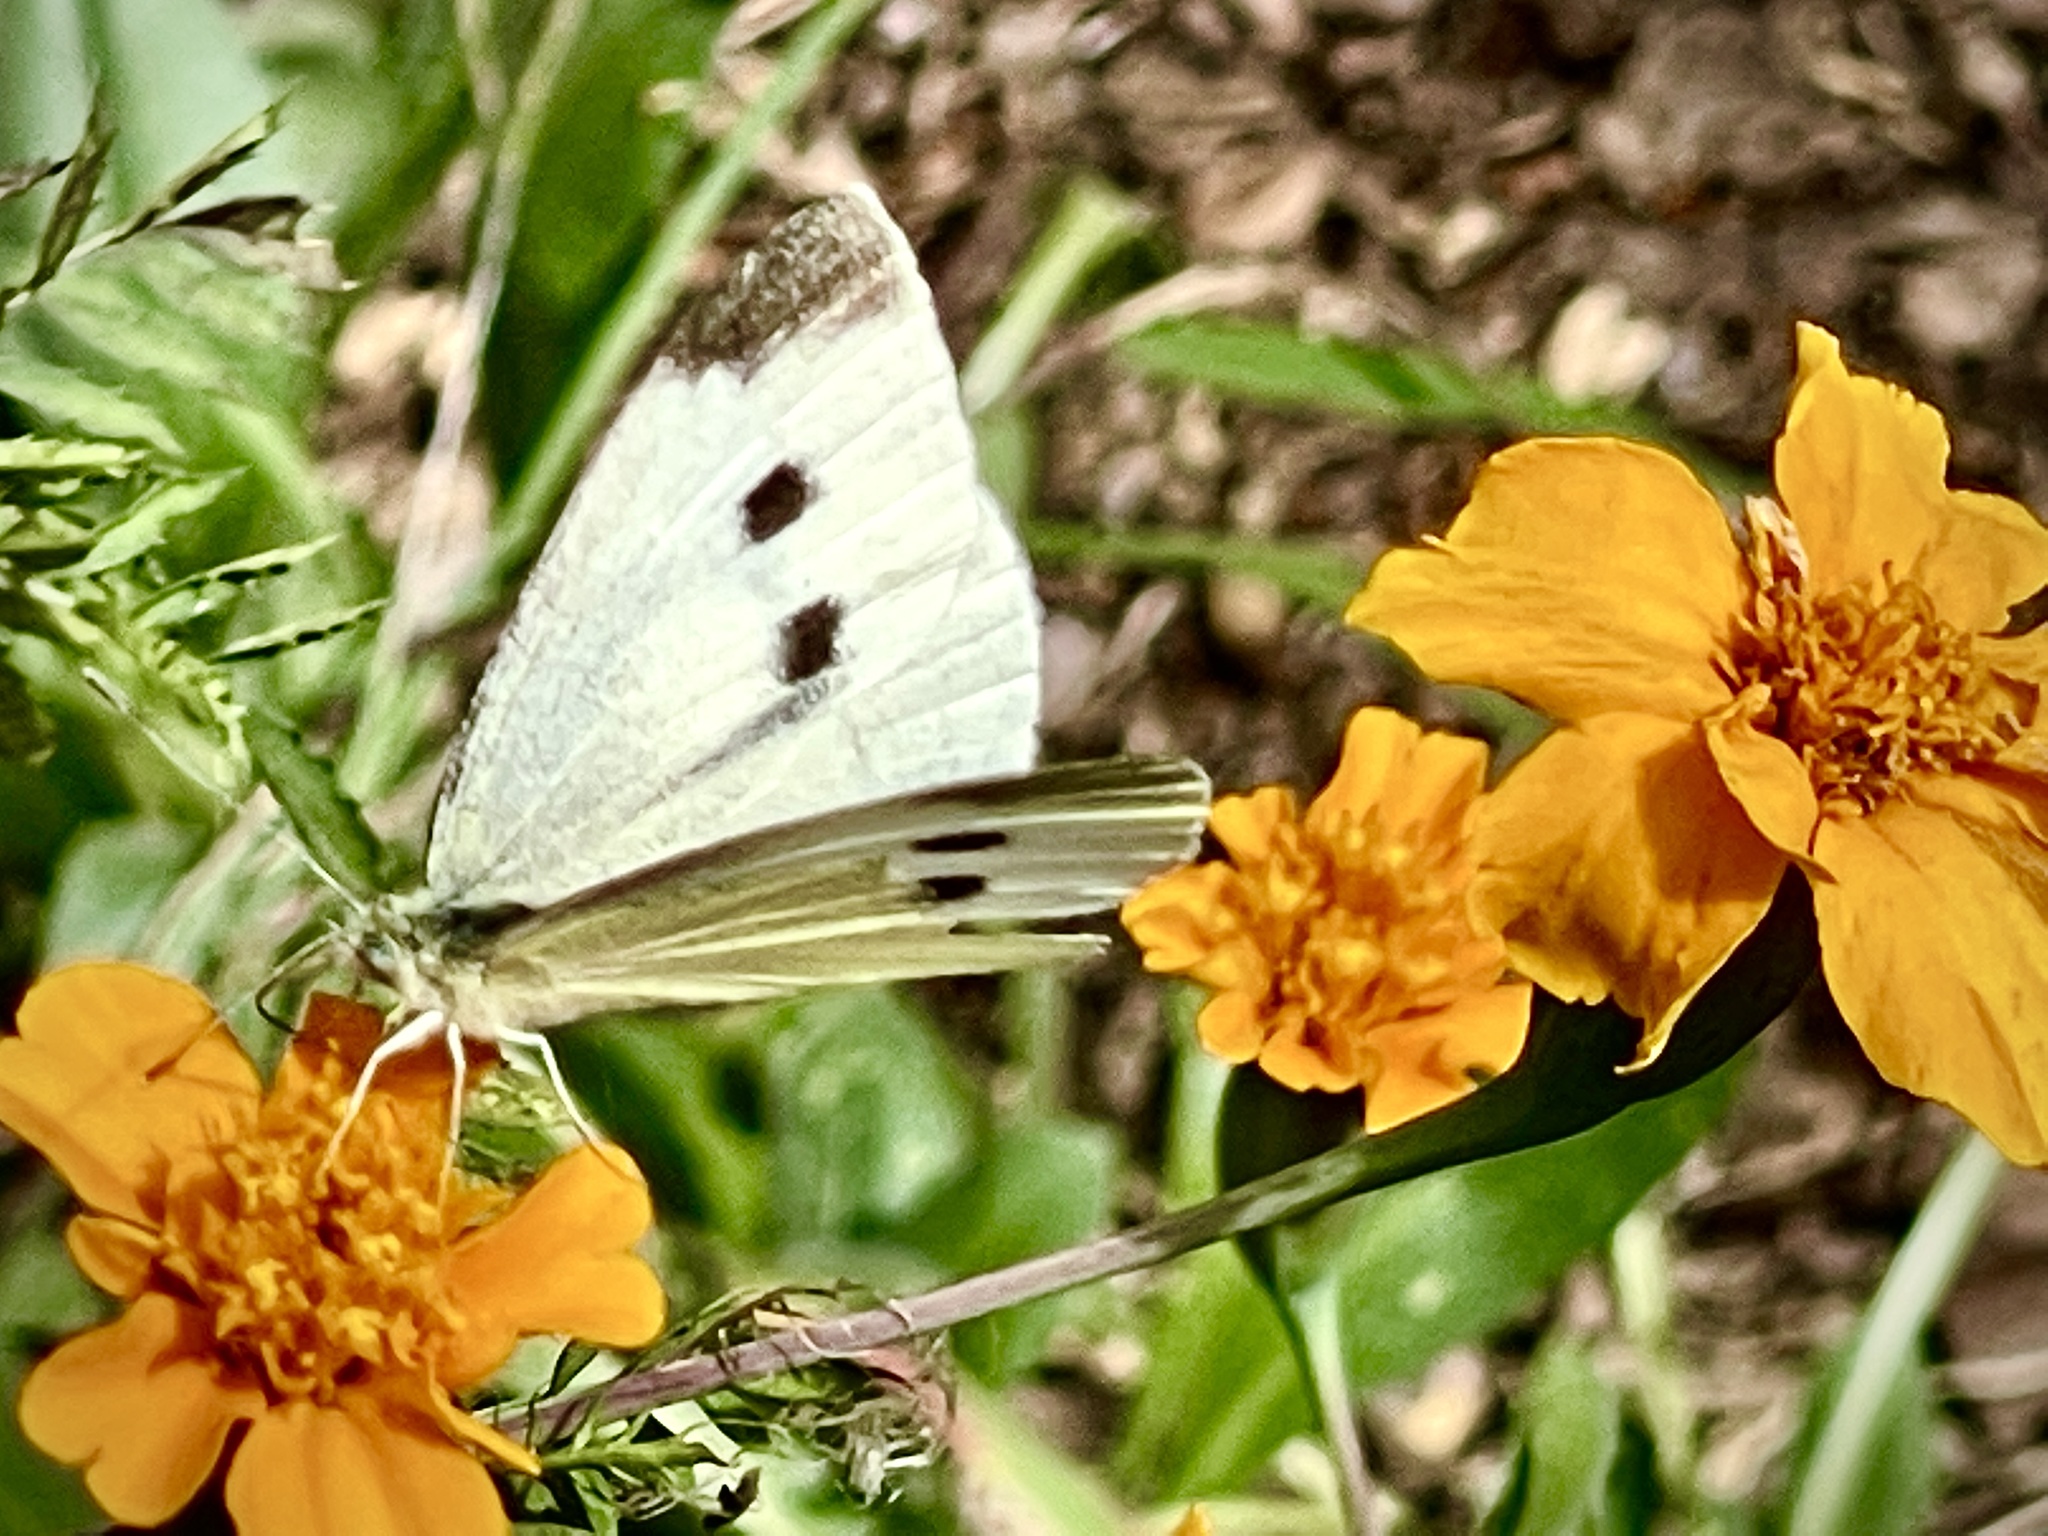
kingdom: Animalia
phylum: Arthropoda
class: Insecta
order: Lepidoptera
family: Pieridae
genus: Pieris
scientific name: Pieris rapae
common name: Small white
